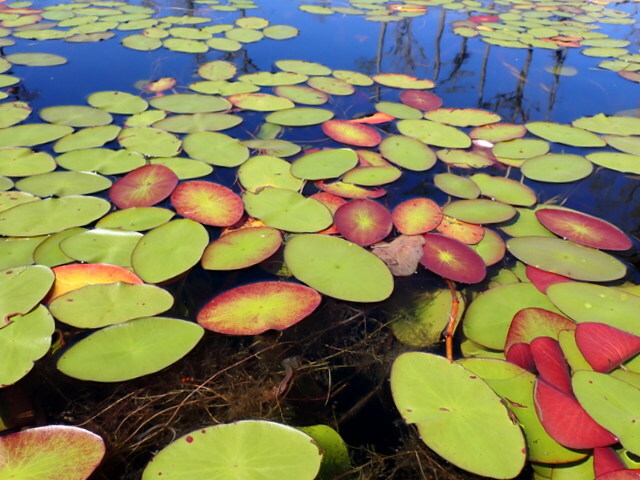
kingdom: Plantae
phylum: Tracheophyta
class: Magnoliopsida
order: Nymphaeales
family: Cabombaceae
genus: Brasenia
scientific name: Brasenia schreberi
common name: Water-shield
